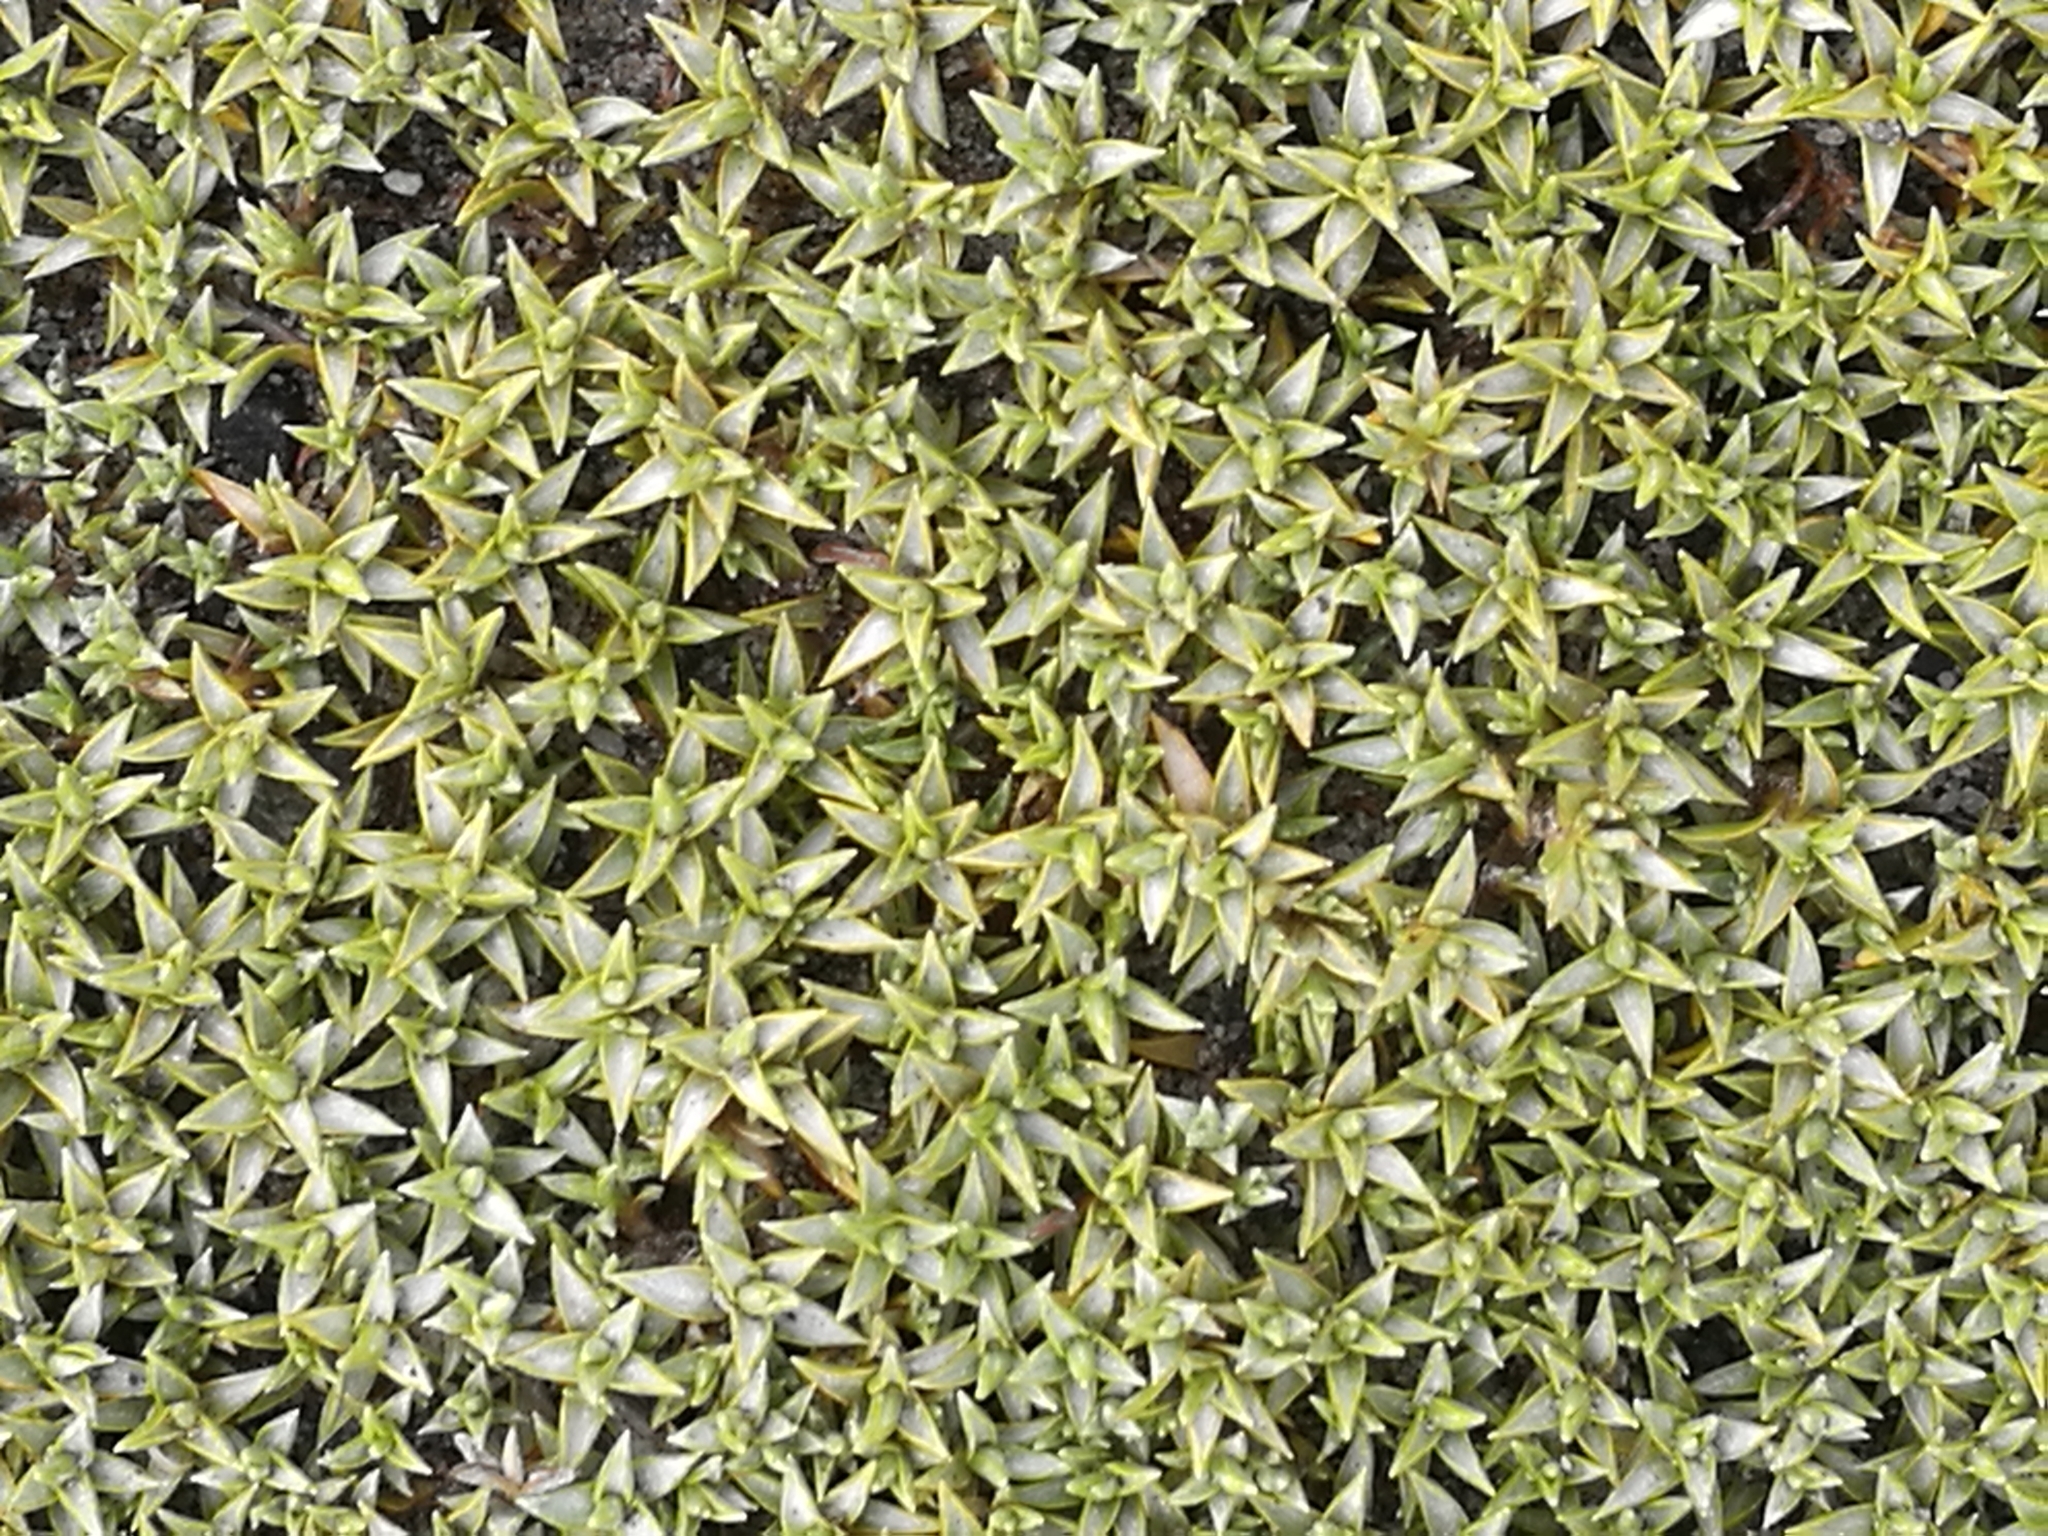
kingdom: Plantae
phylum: Tracheophyta
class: Magnoliopsida
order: Asterales
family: Asteraceae
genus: Raoulia
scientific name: Raoulia tenuicaulis
